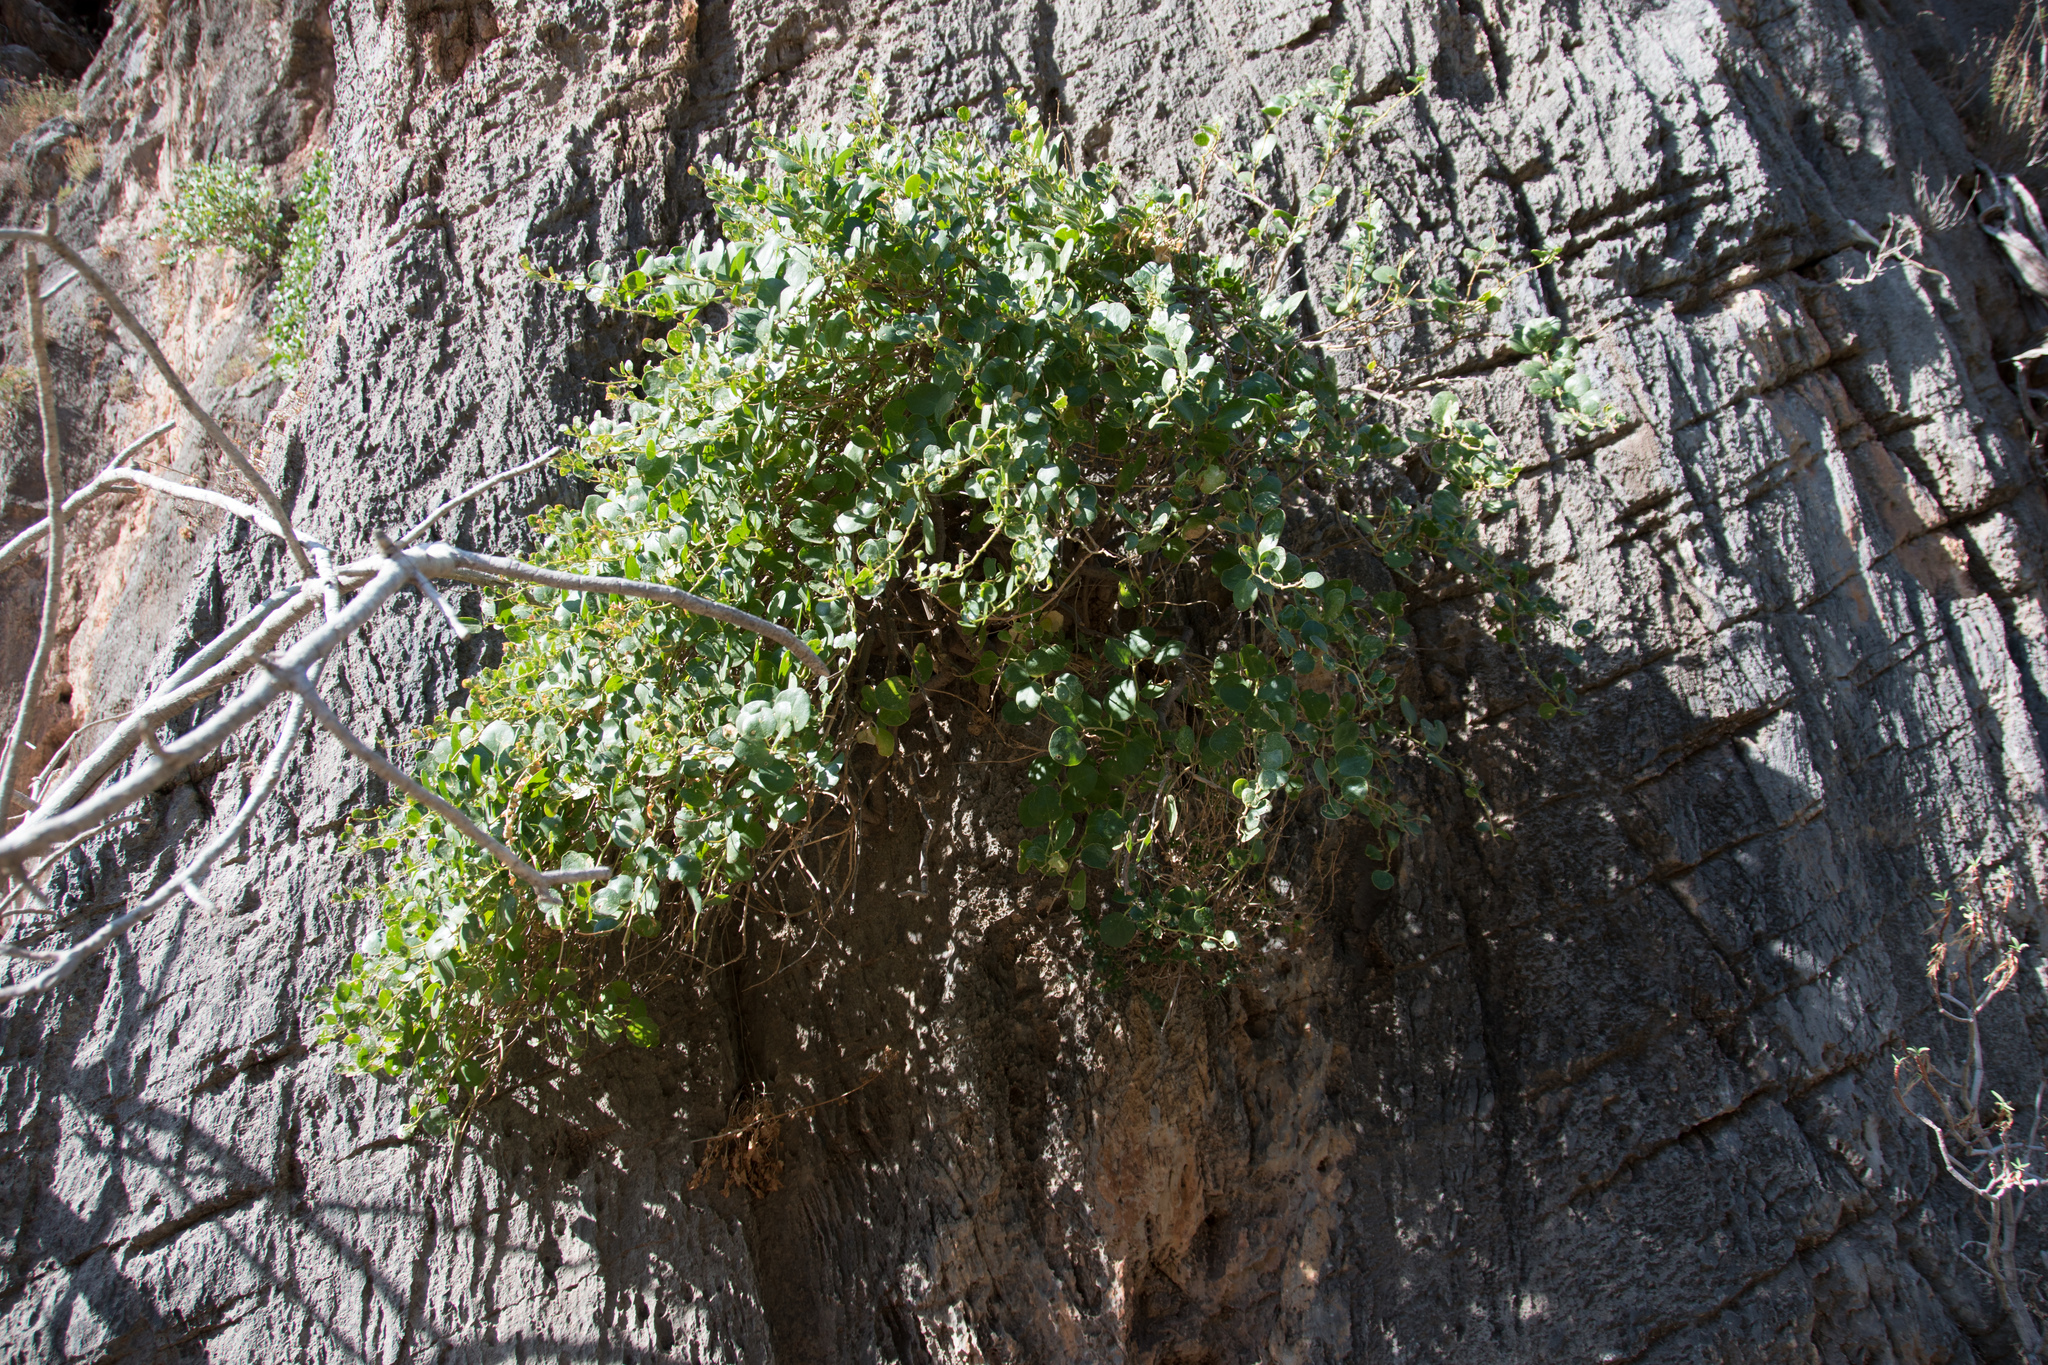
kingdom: Plantae
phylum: Tracheophyta
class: Magnoliopsida
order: Brassicales
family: Capparaceae
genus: Capparis
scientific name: Capparis orientalis
